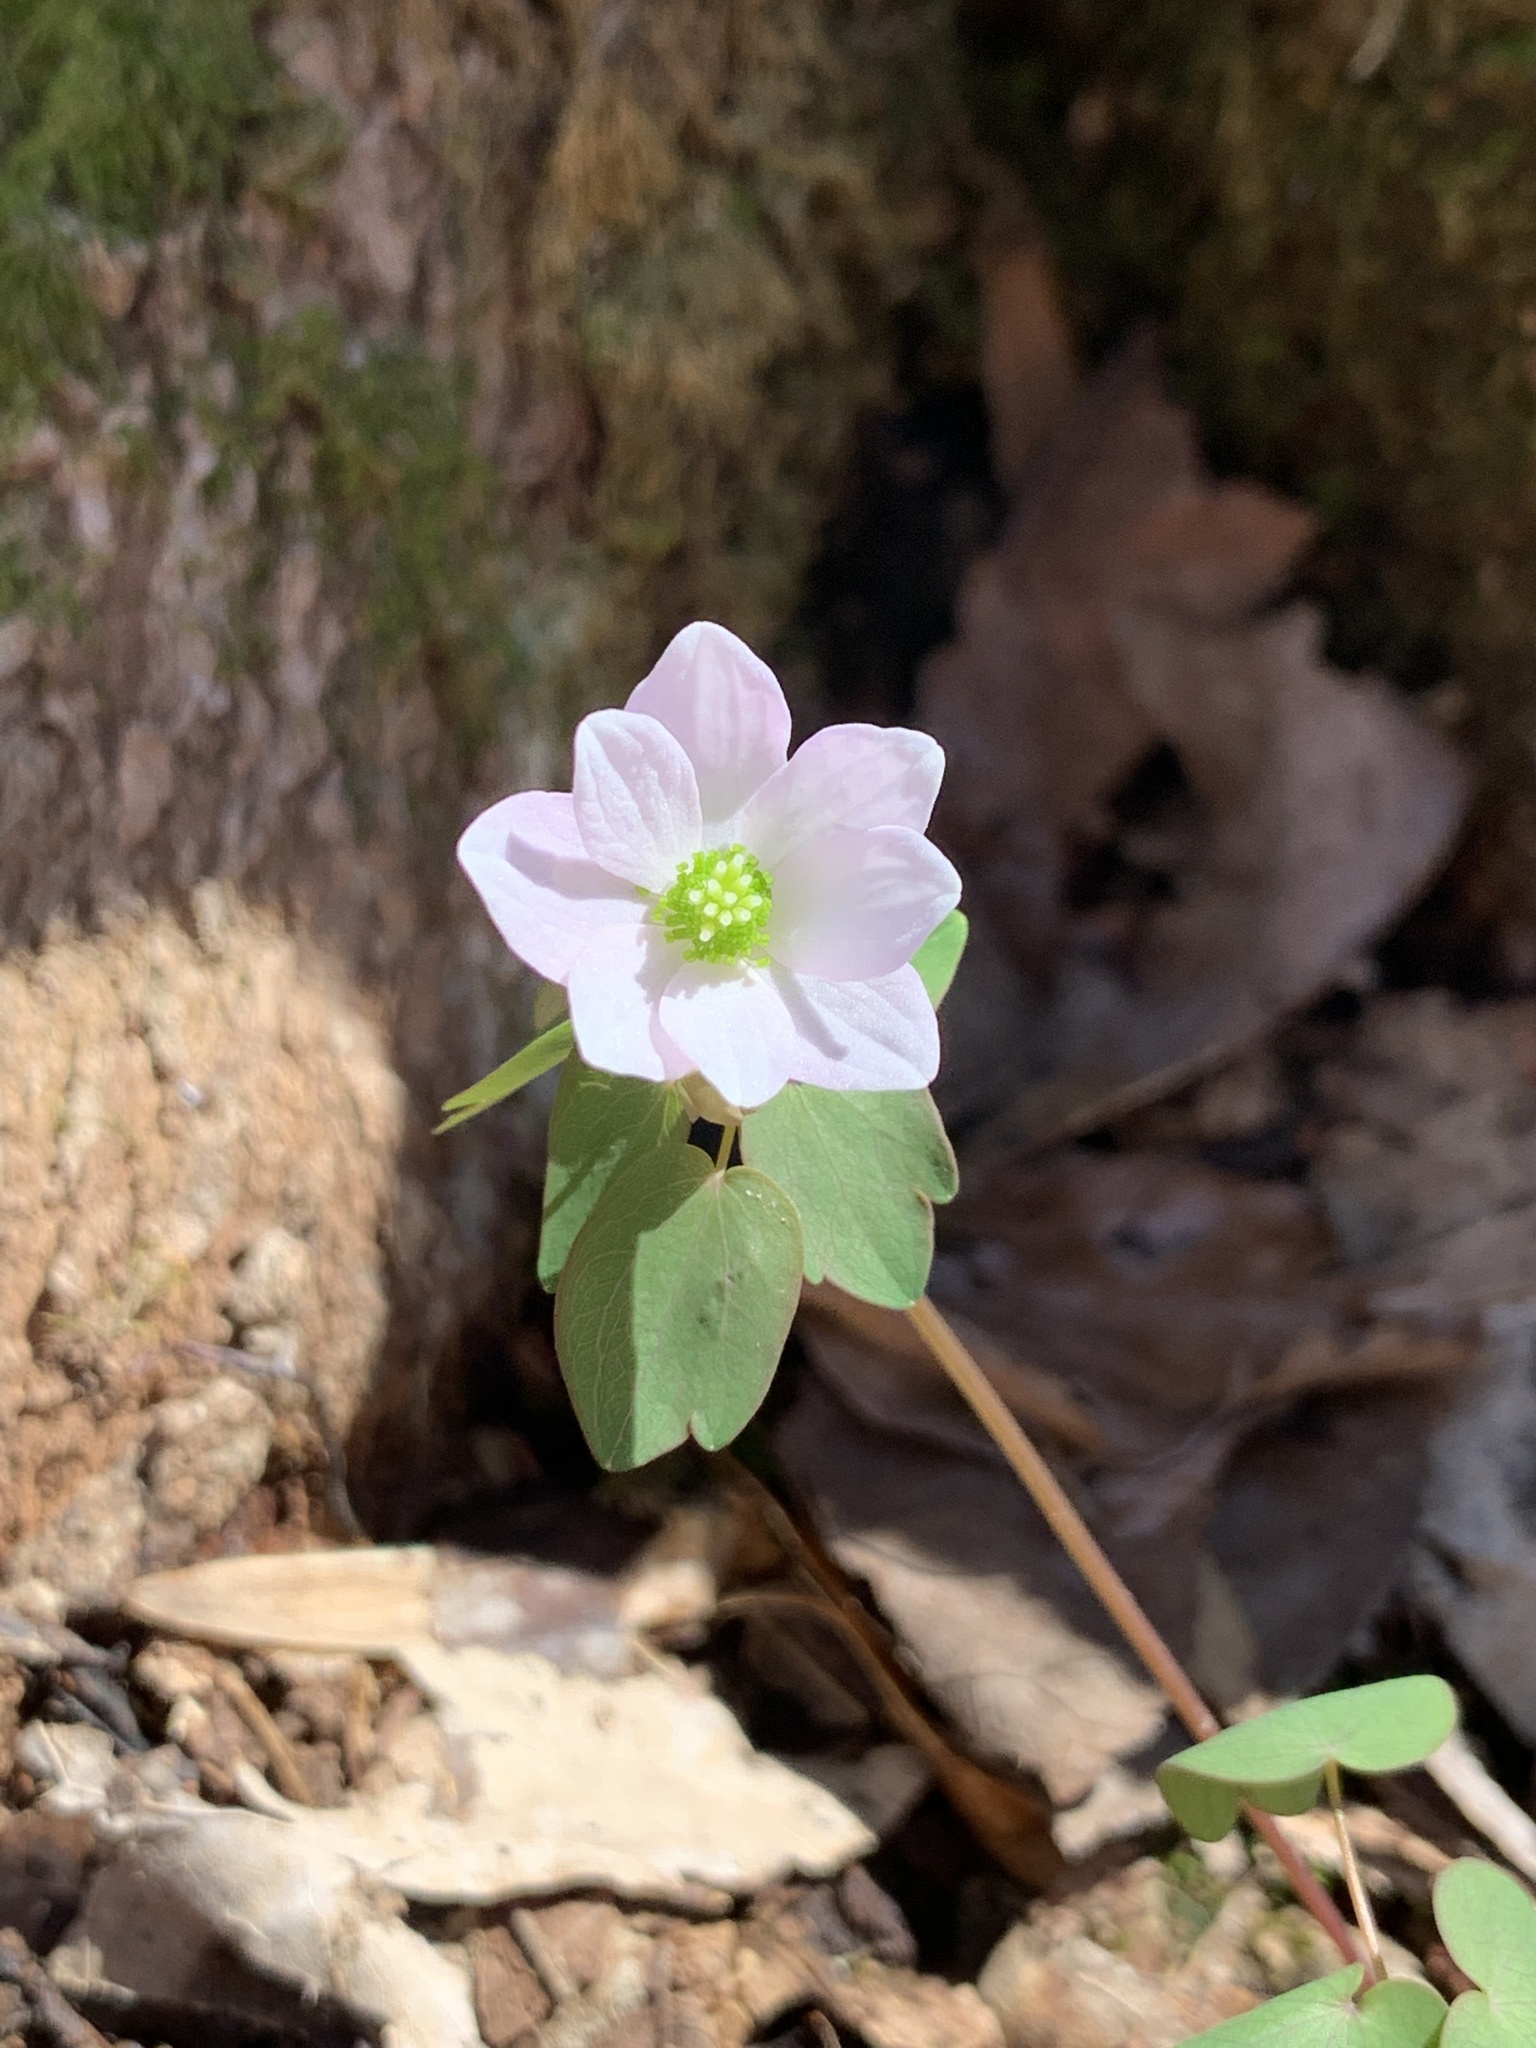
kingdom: Plantae
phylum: Tracheophyta
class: Magnoliopsida
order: Ranunculales
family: Ranunculaceae
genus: Thalictrum
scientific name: Thalictrum thalictroides
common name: Rue-anemone
